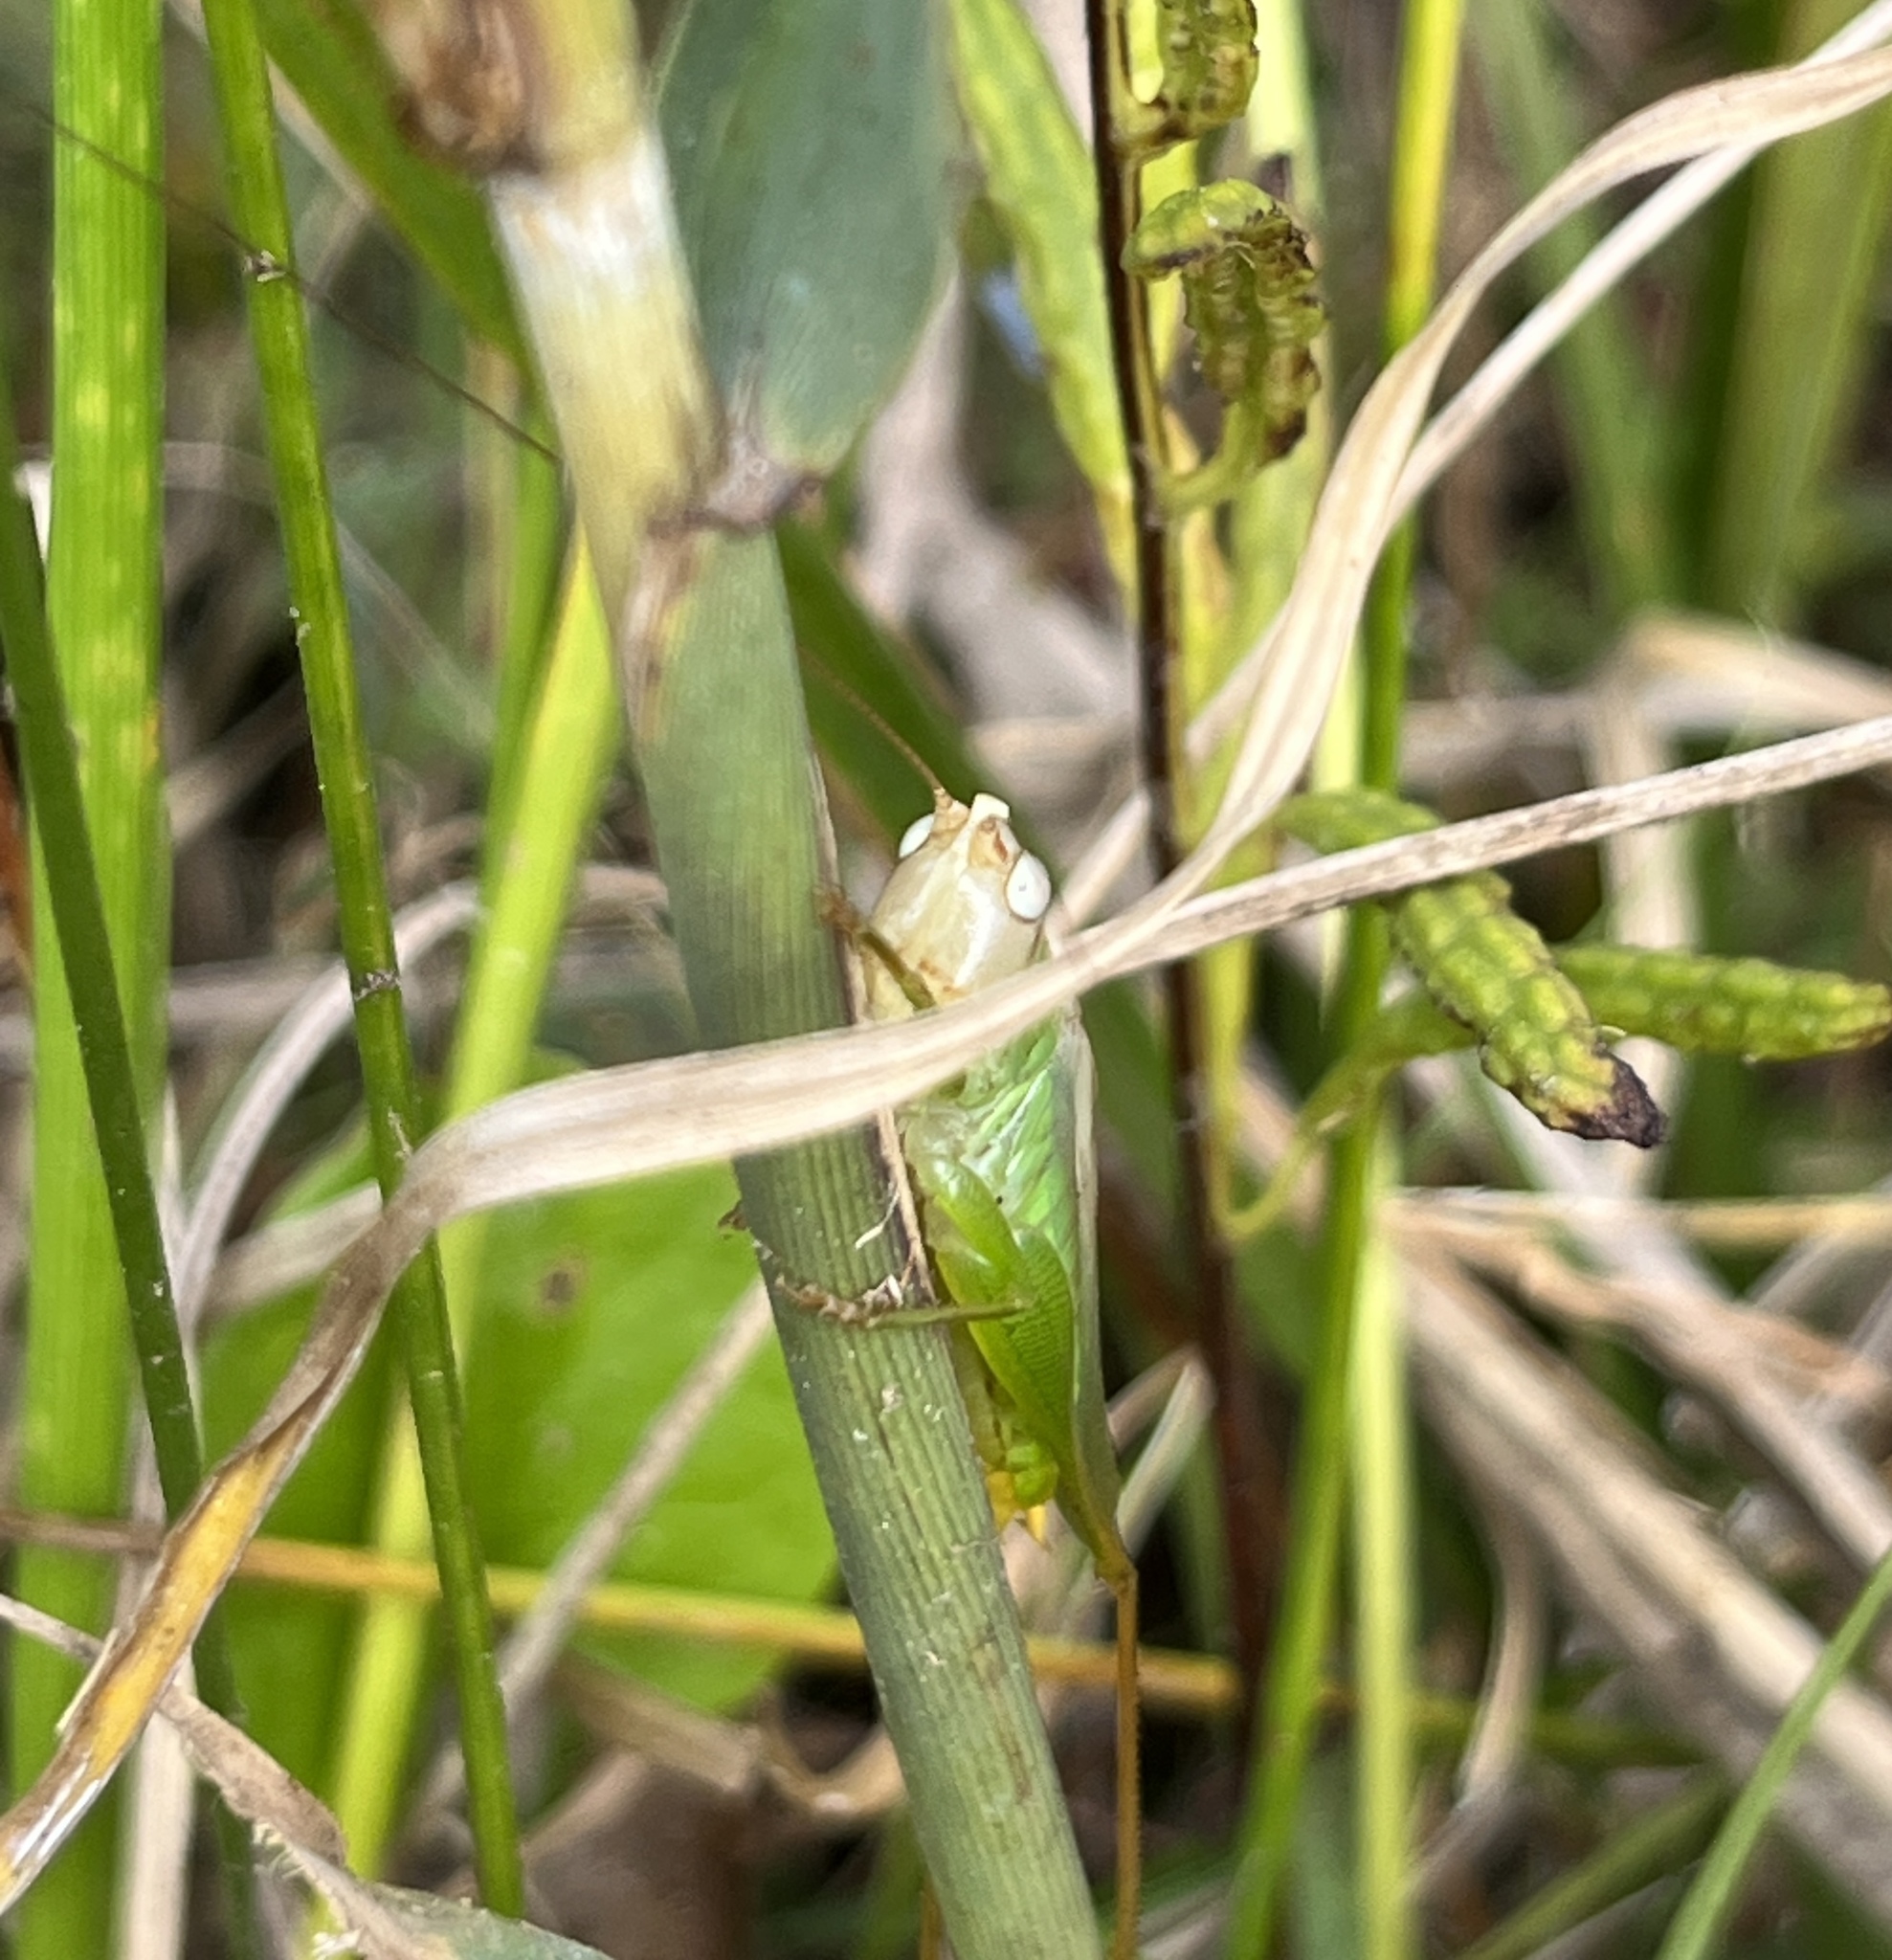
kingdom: Animalia
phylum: Arthropoda
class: Insecta
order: Orthoptera
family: Tettigoniidae
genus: Orchelimum
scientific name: Orchelimum agilis
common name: Agile meadow grasshopper
